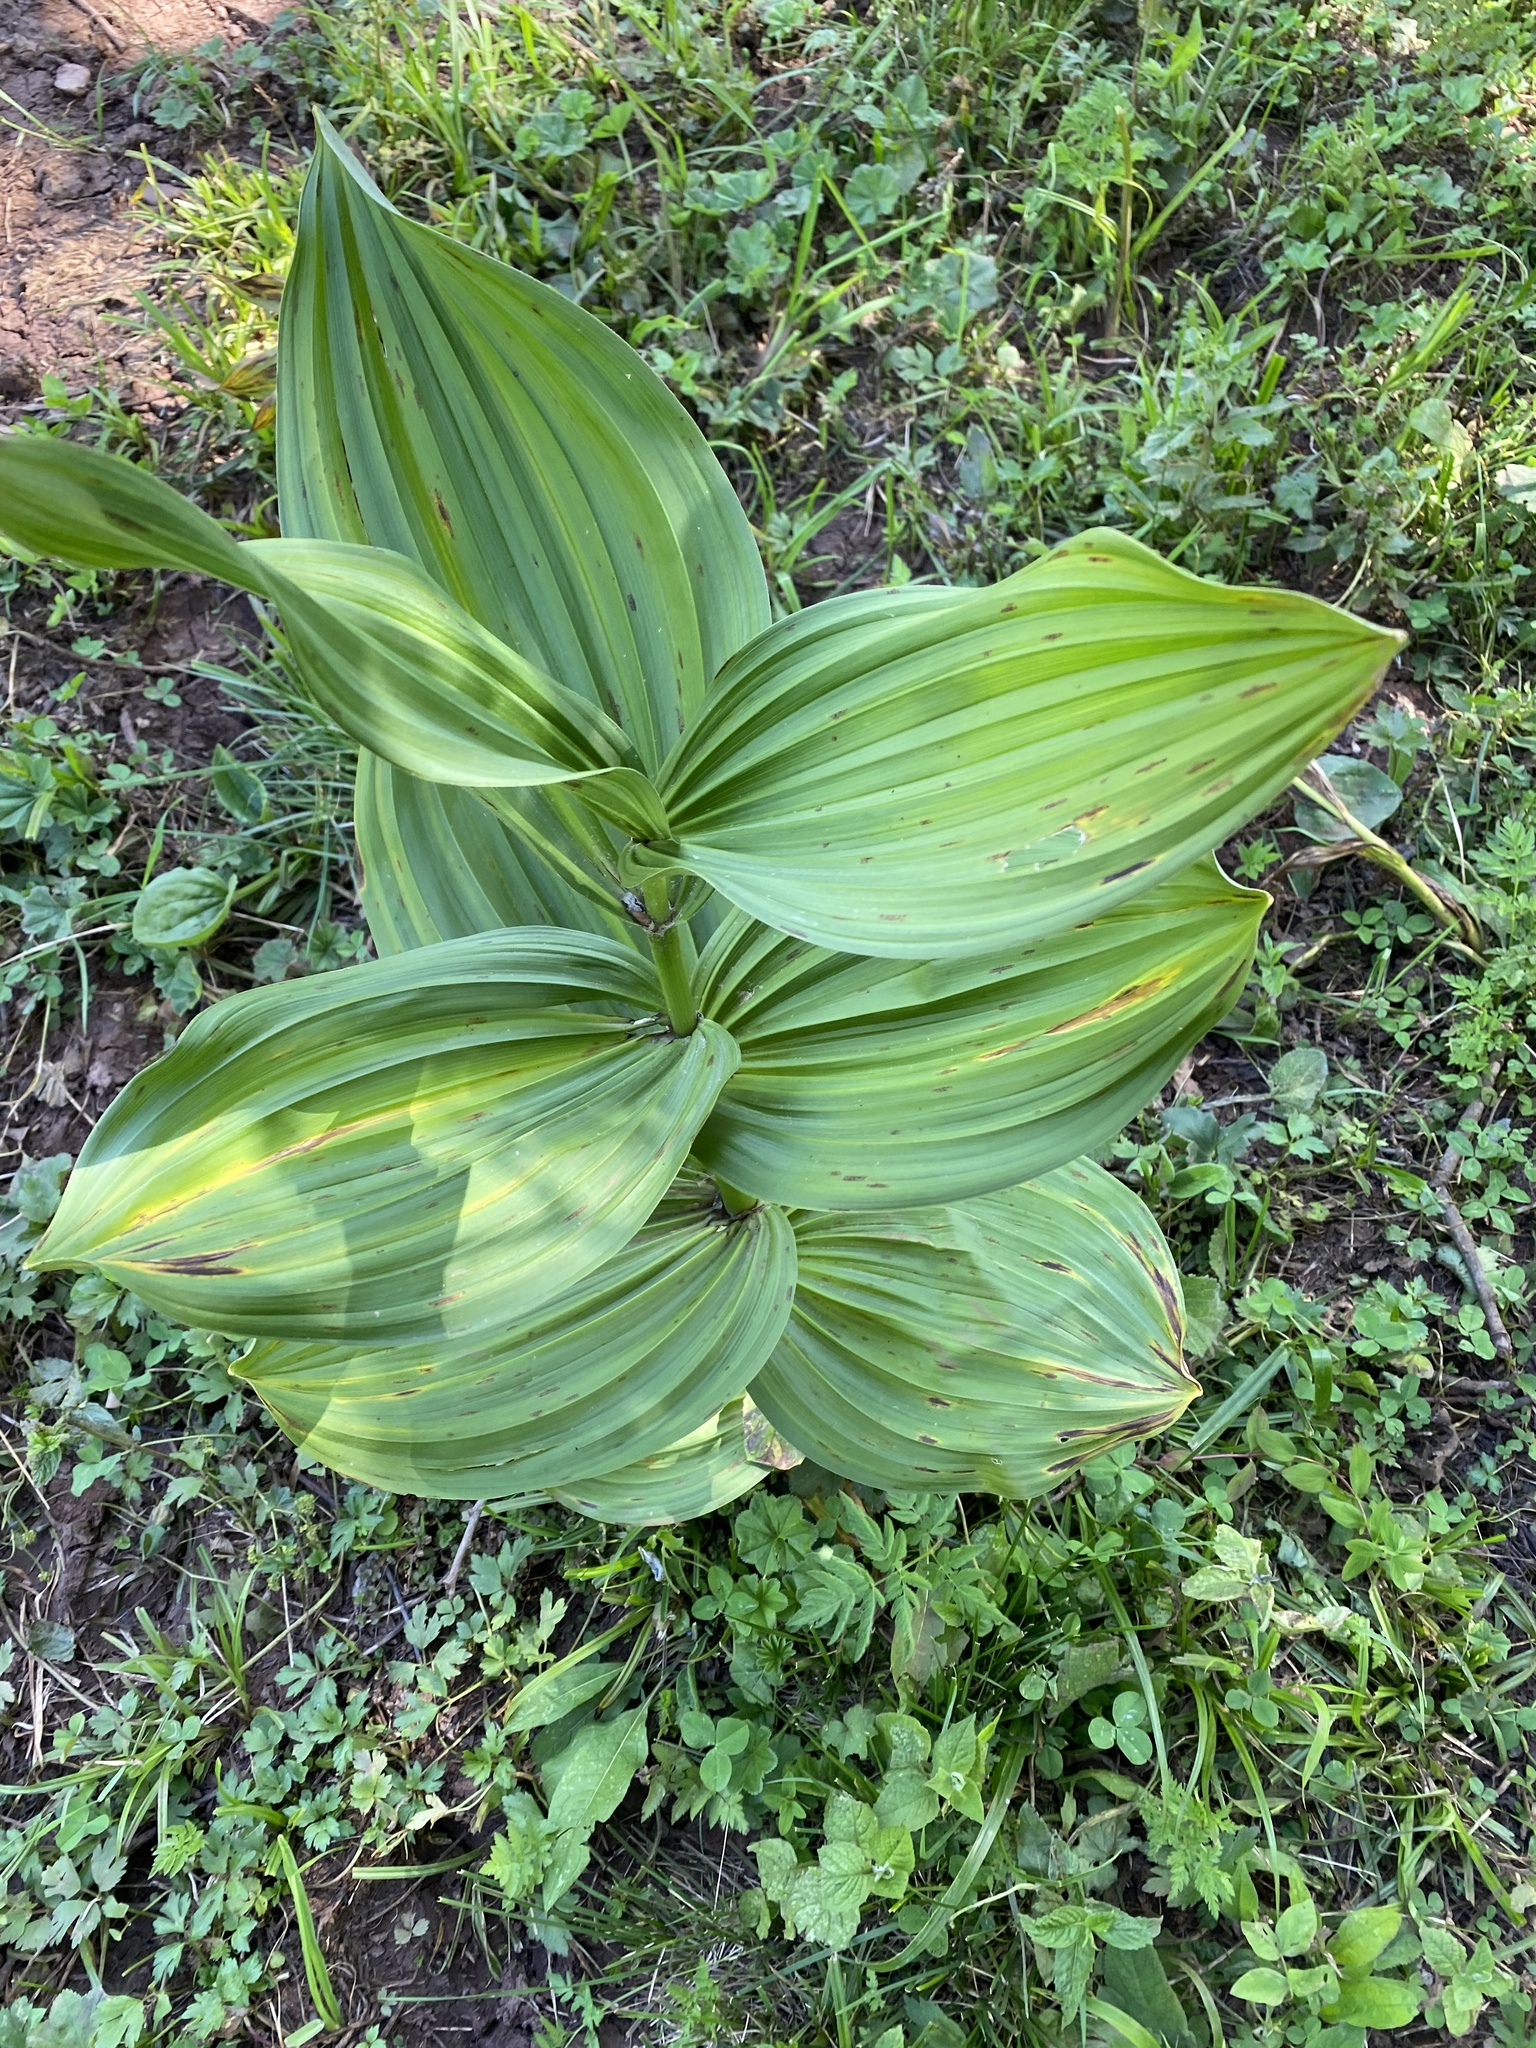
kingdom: Plantae
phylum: Tracheophyta
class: Liliopsida
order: Liliales
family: Melanthiaceae
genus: Veratrum
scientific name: Veratrum lobelianum
